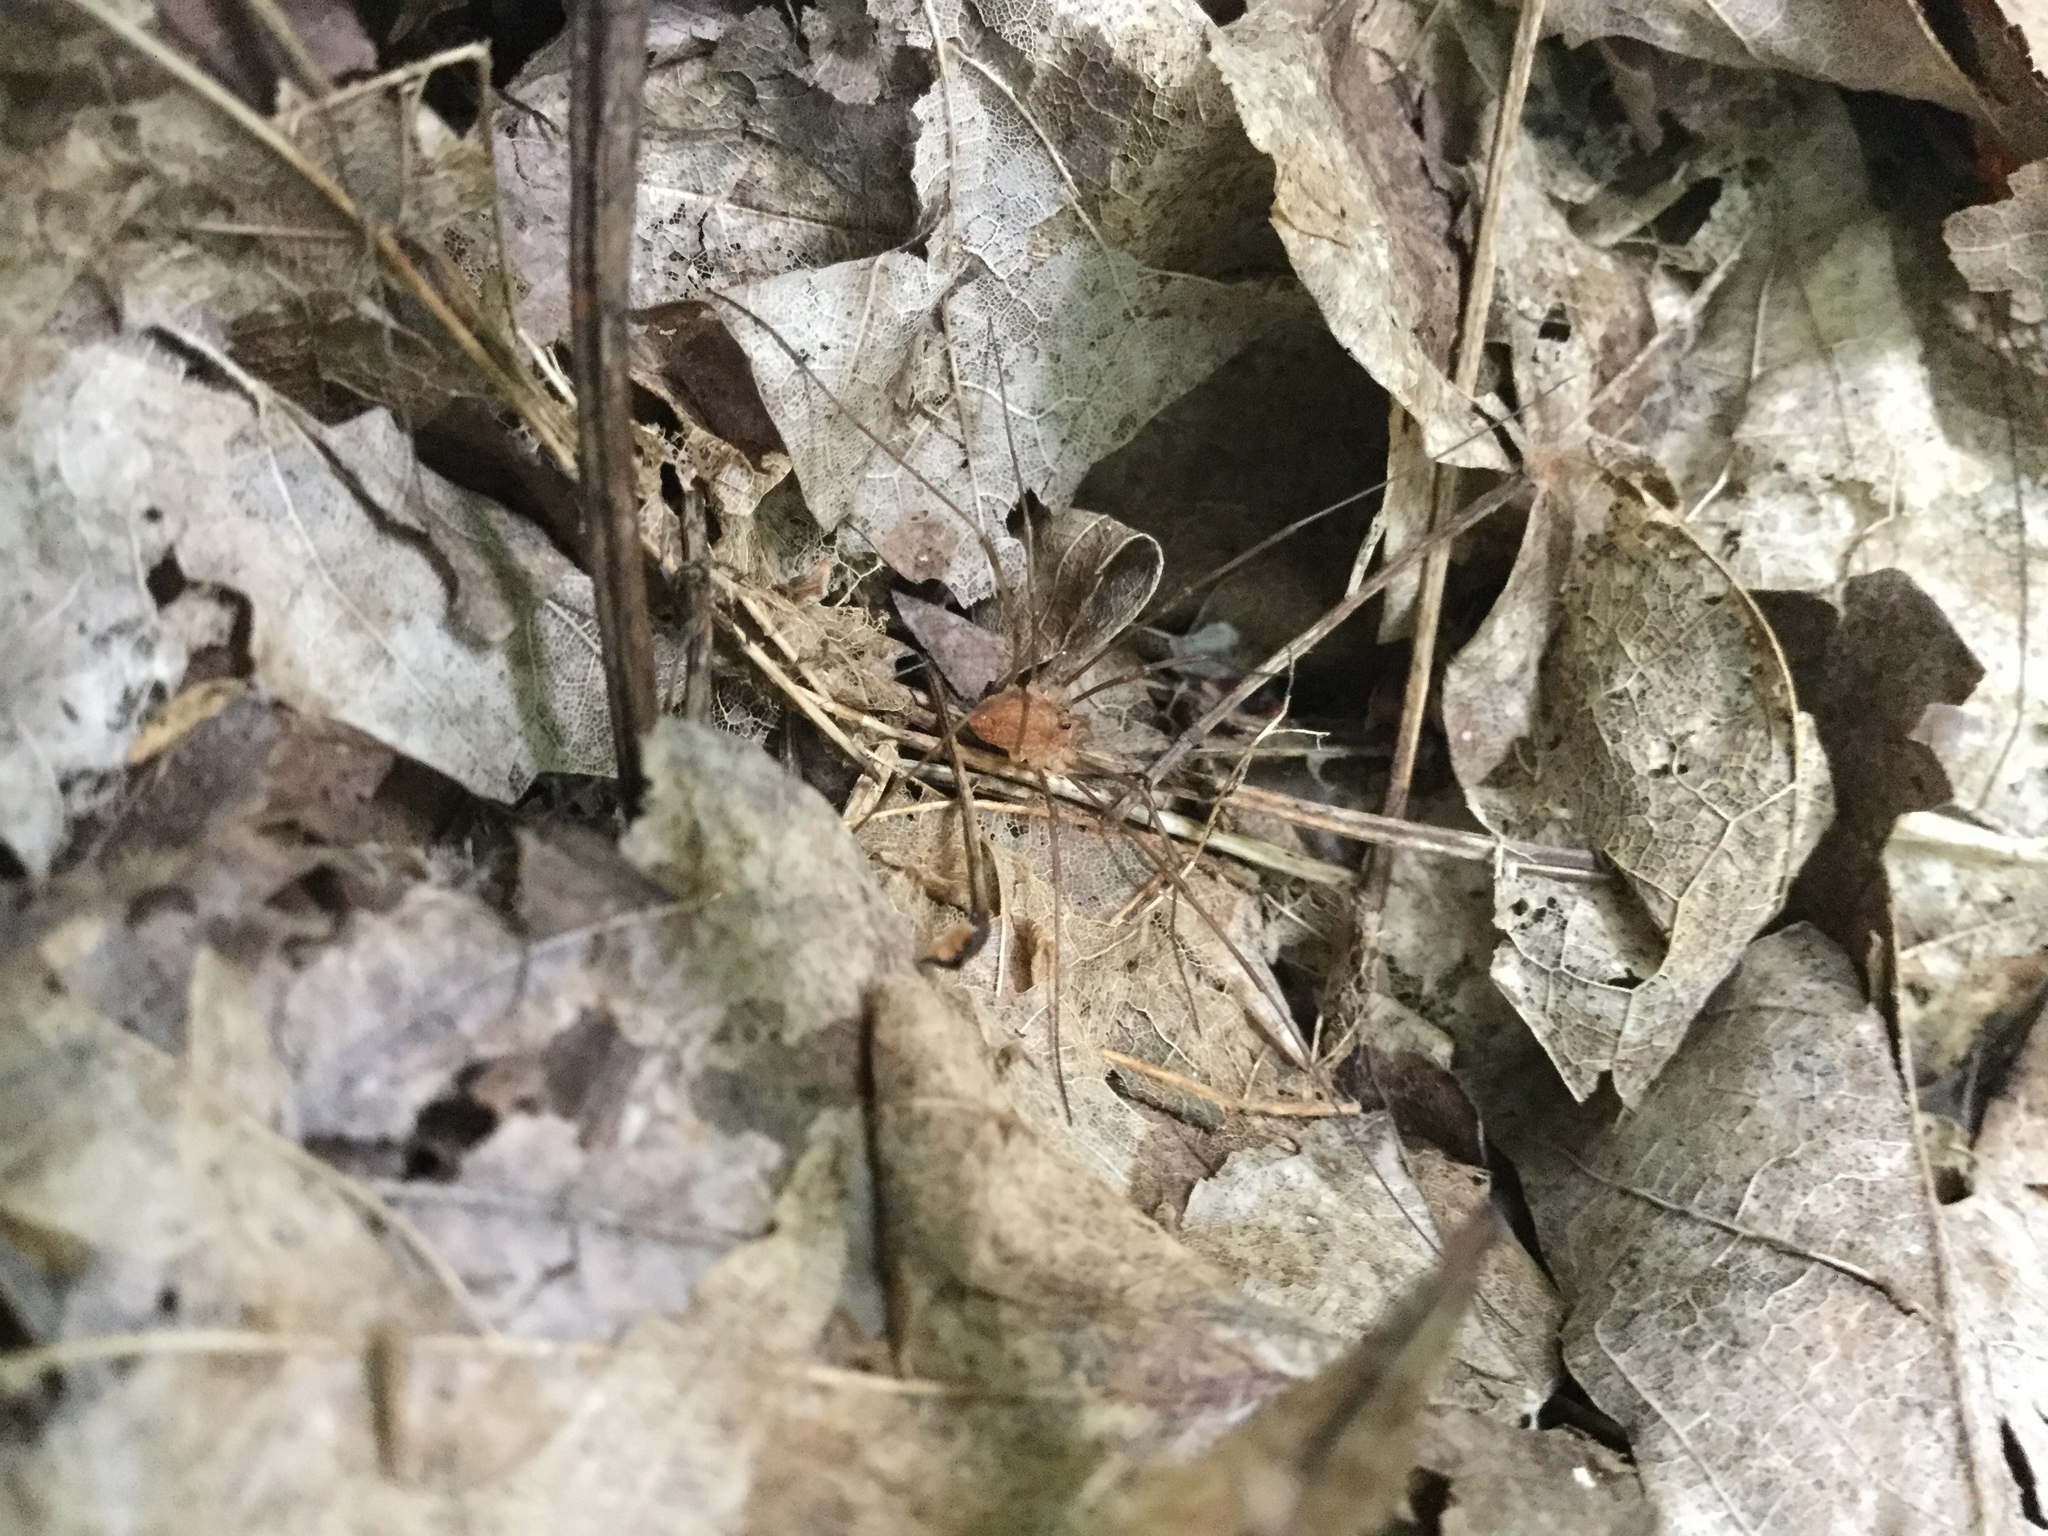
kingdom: Animalia
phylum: Arthropoda
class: Arachnida
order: Opiliones
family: Phalangiidae
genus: Rilaena
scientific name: Rilaena triangularis
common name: Spring harvestman
